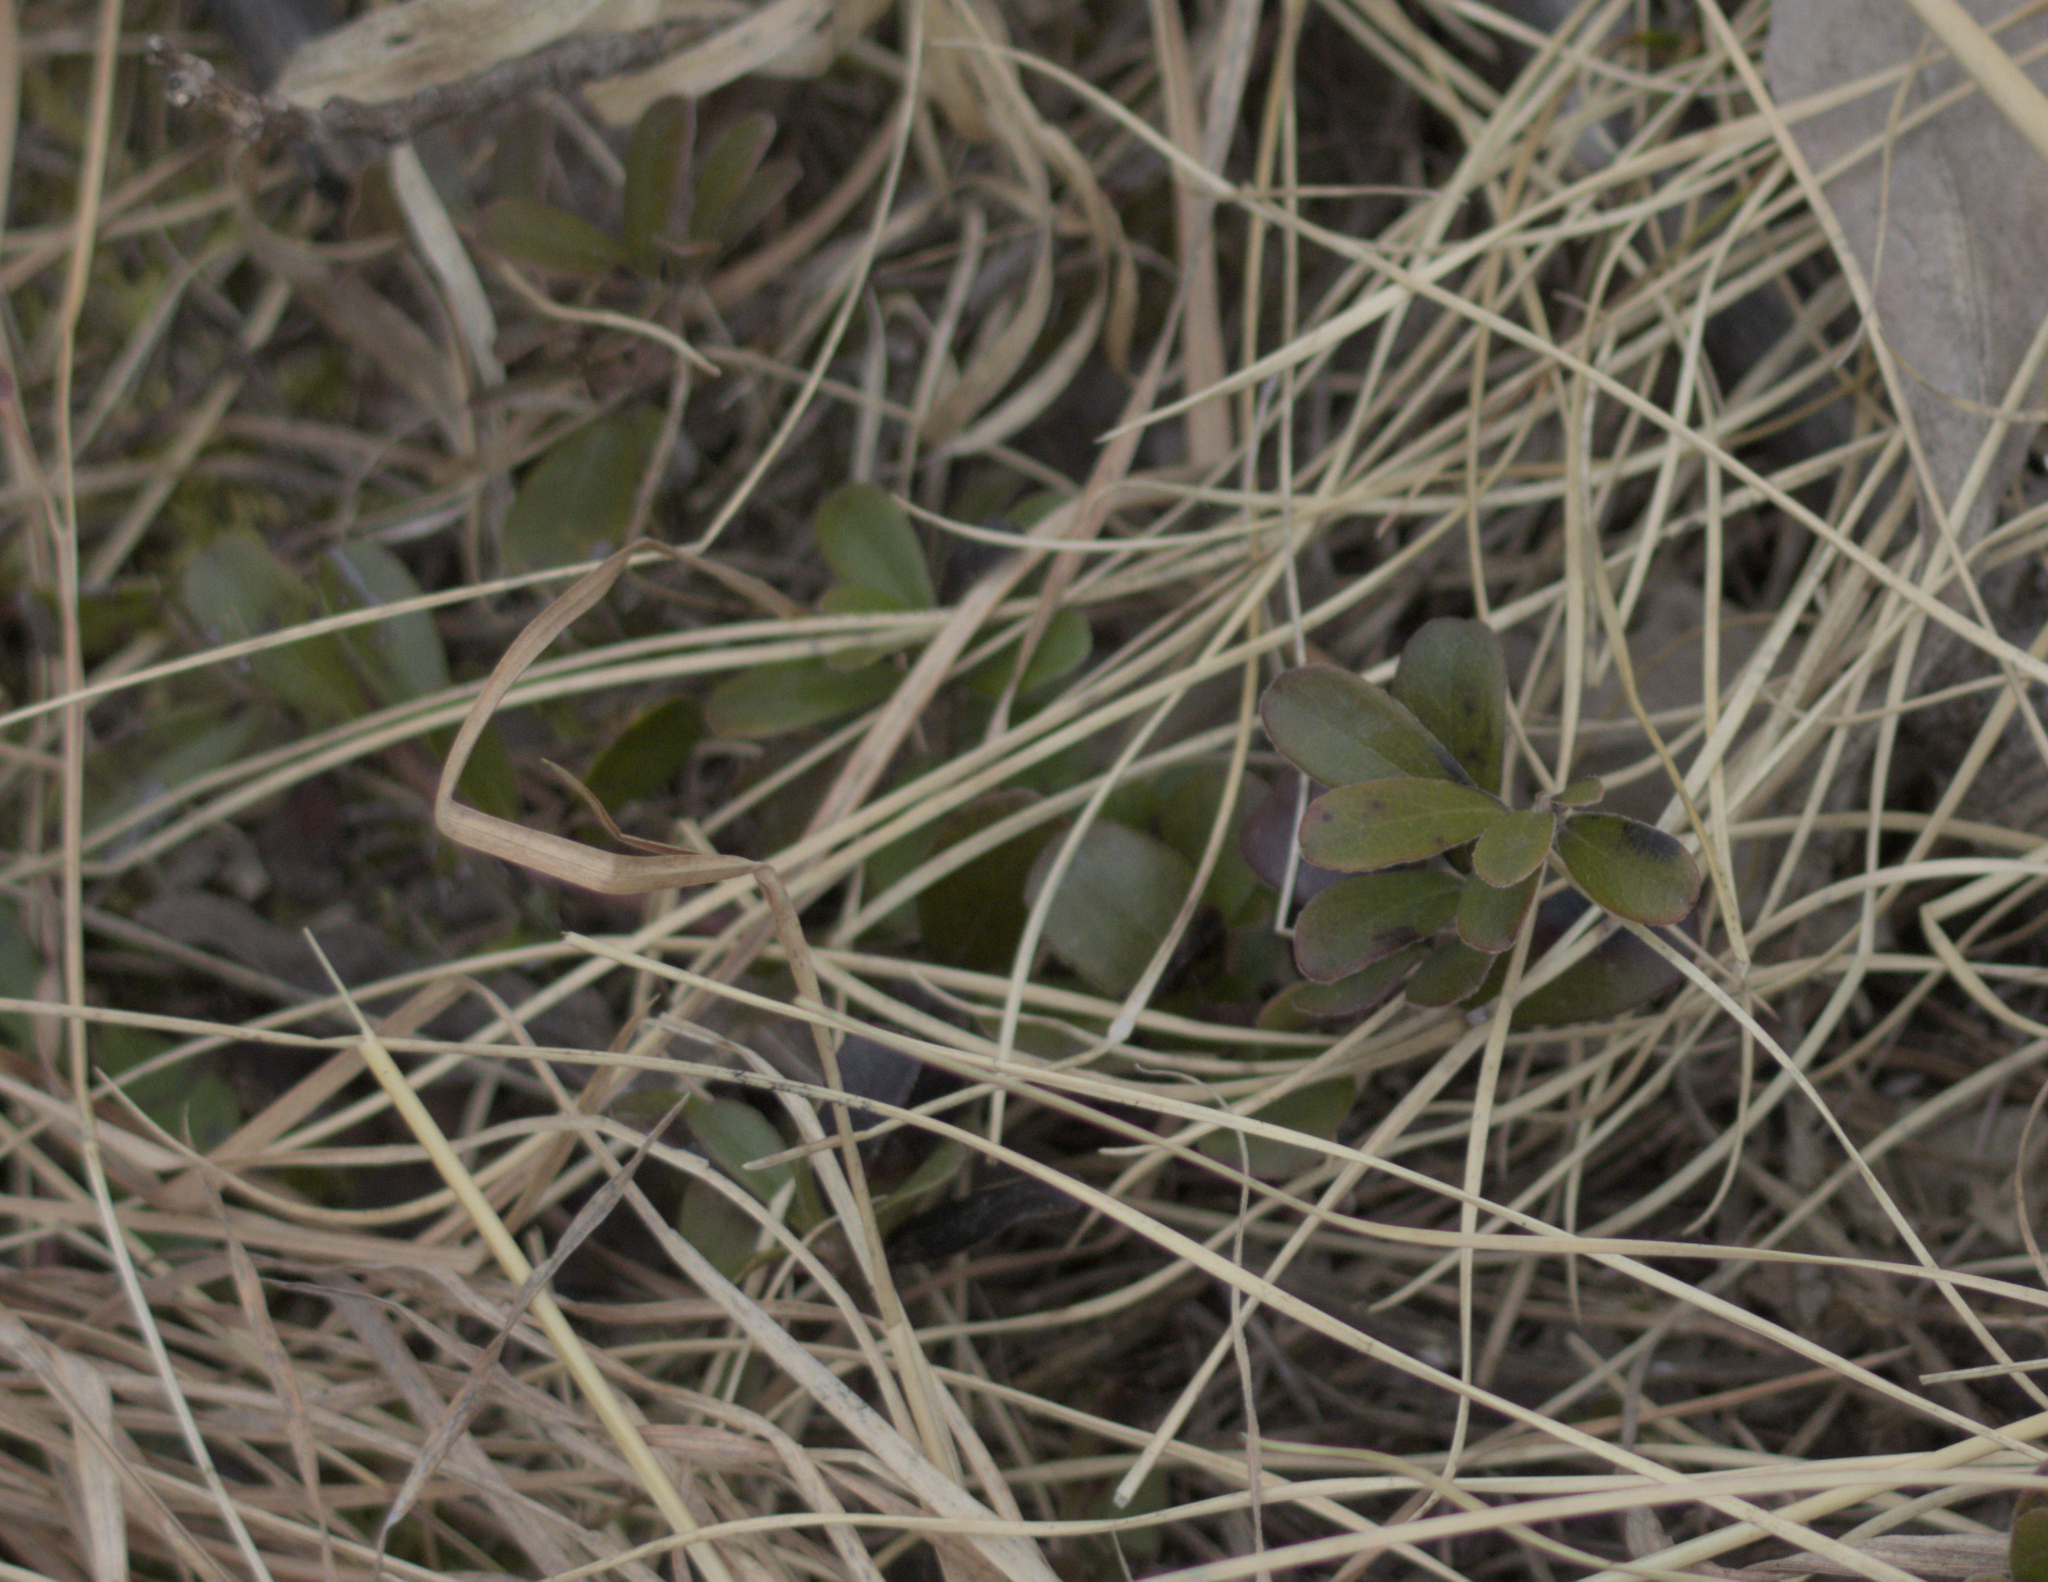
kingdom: Plantae
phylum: Tracheophyta
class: Magnoliopsida
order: Ericales
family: Ericaceae
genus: Arctostaphylos
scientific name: Arctostaphylos uva-ursi
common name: Bearberry
